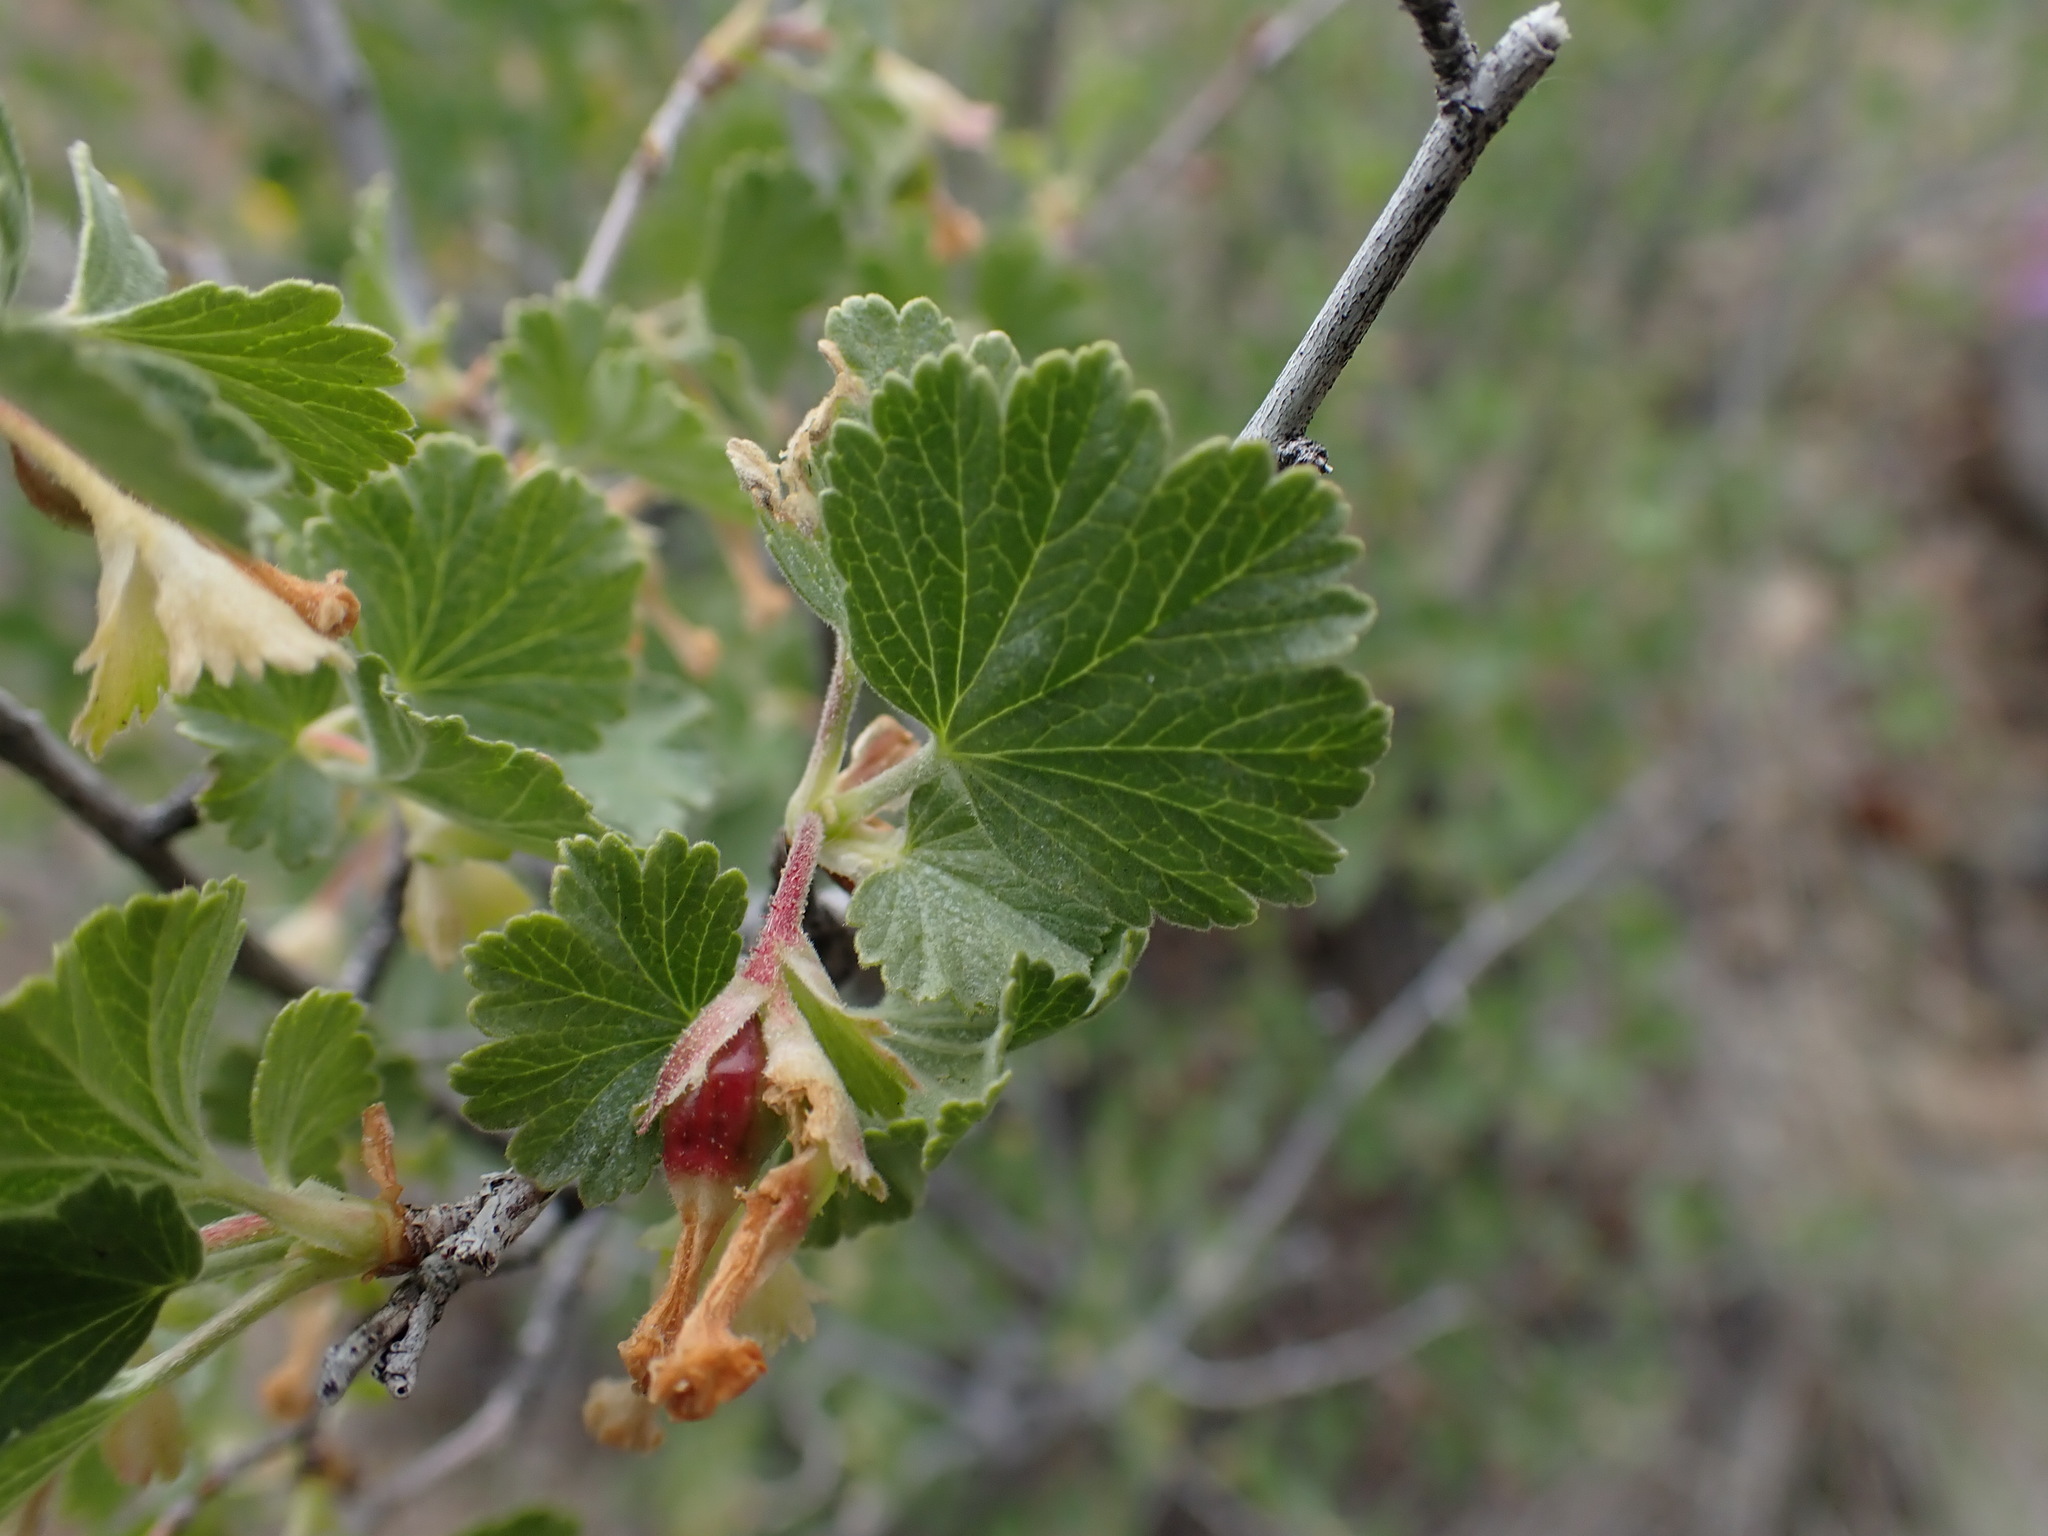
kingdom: Plantae
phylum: Tracheophyta
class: Magnoliopsida
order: Saxifragales
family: Grossulariaceae
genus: Ribes
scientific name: Ribes cereum
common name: Wax currant
